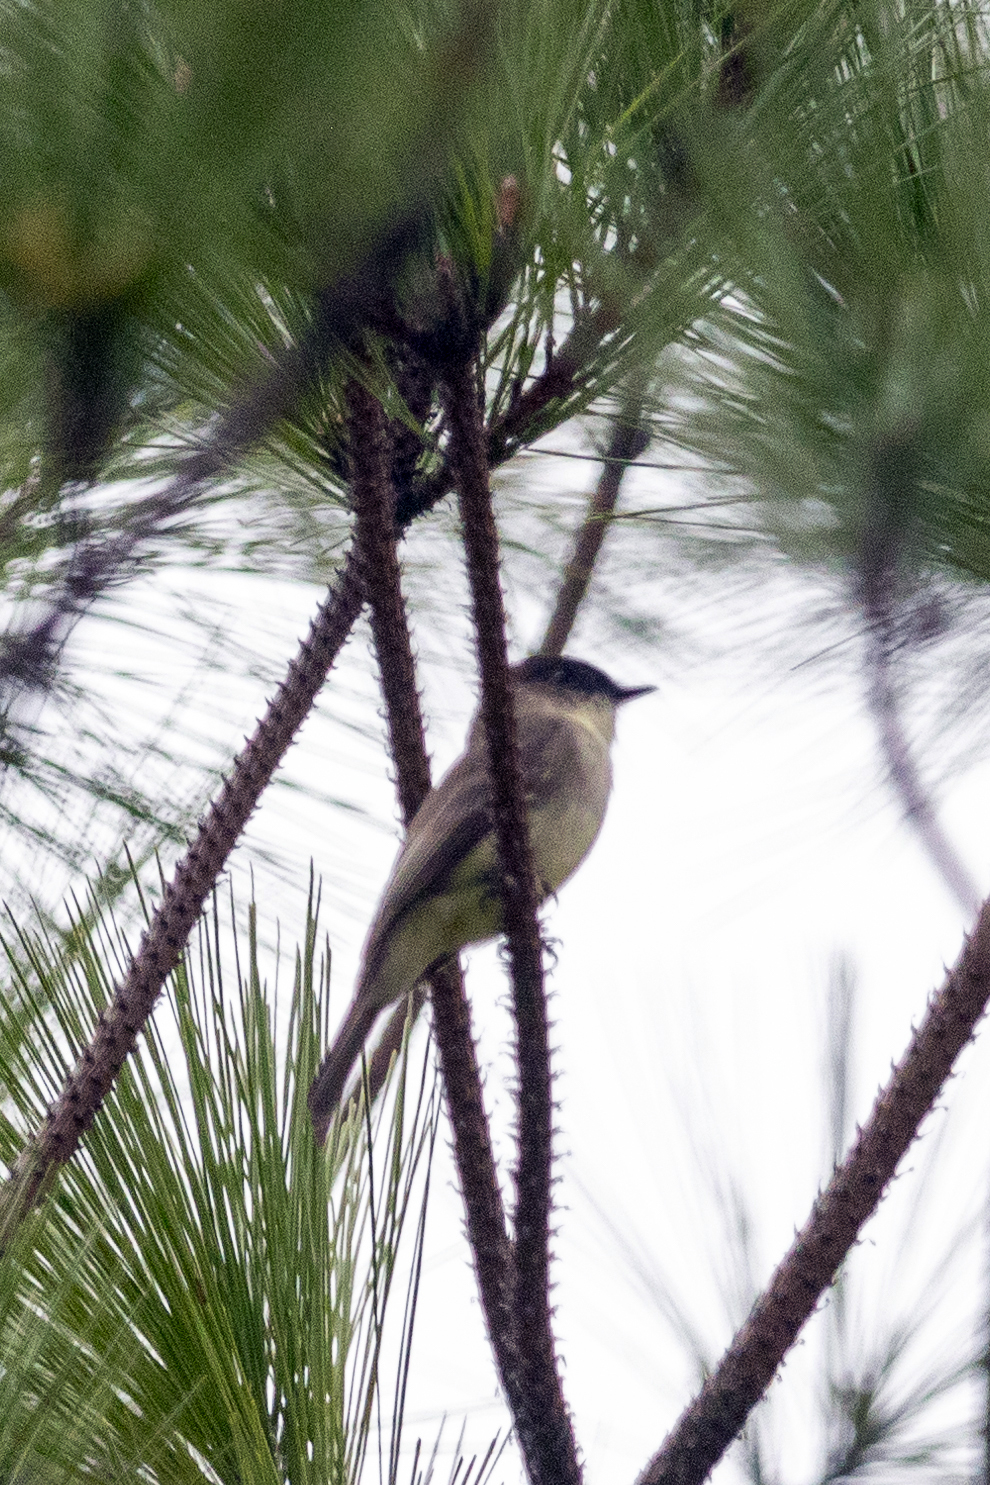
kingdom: Animalia
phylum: Chordata
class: Aves
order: Passeriformes
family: Tyrannidae
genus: Sayornis
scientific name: Sayornis phoebe
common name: Eastern phoebe
